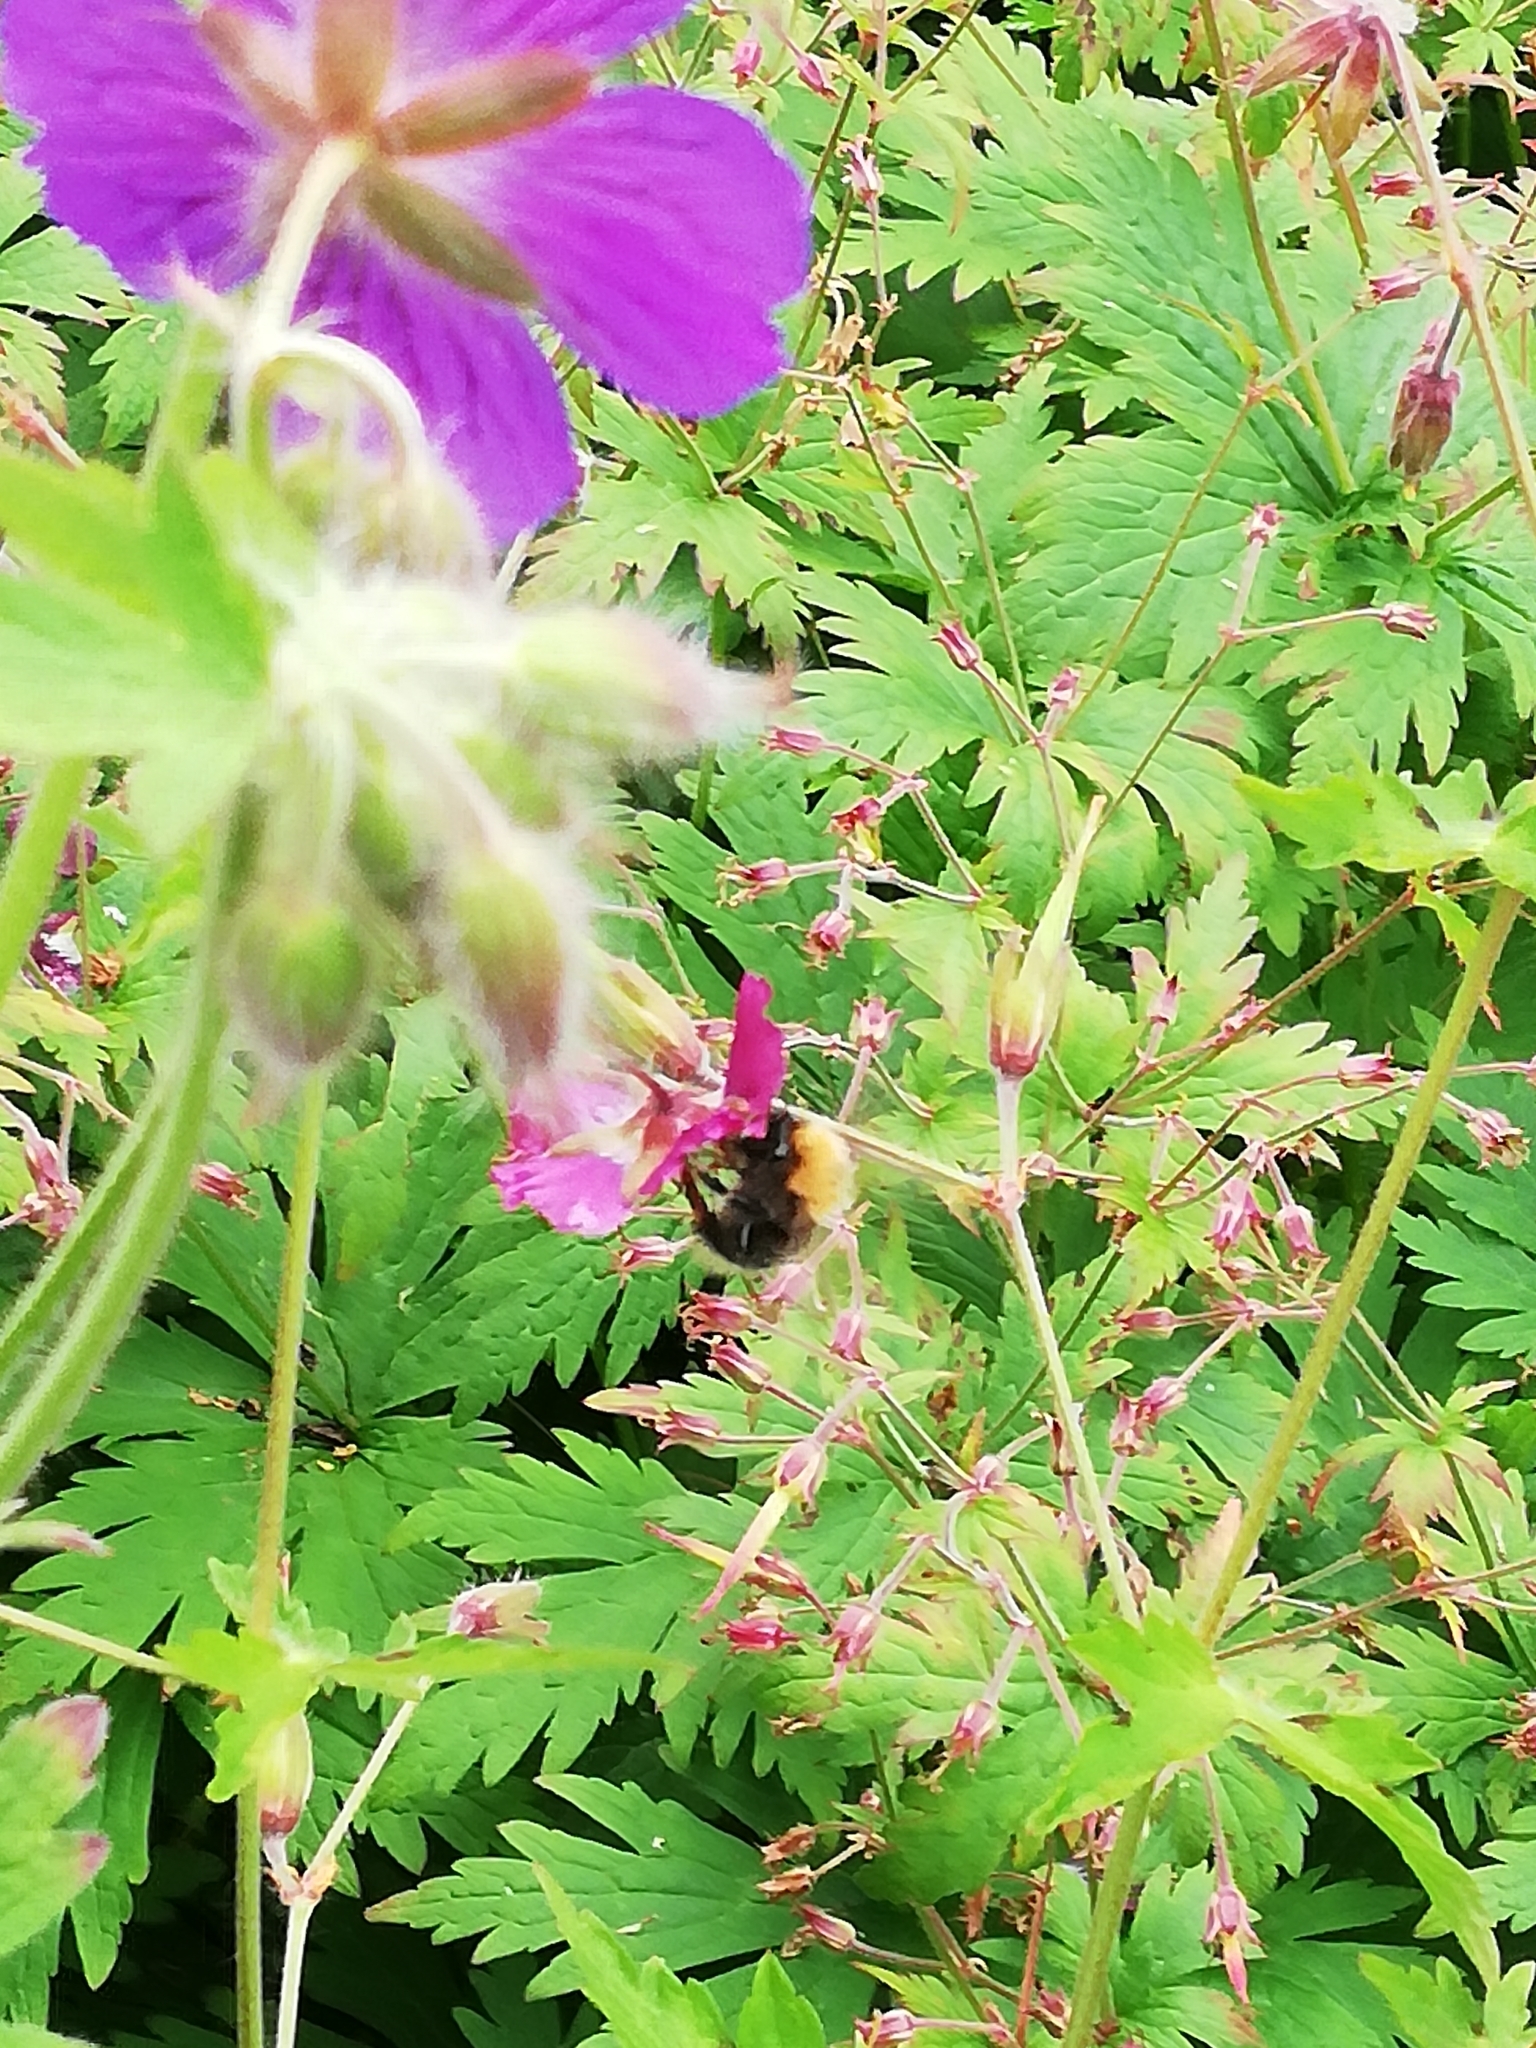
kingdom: Animalia
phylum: Arthropoda
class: Insecta
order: Hymenoptera
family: Apidae
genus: Bombus
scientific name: Bombus hypnorum
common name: New garden bumblebee
